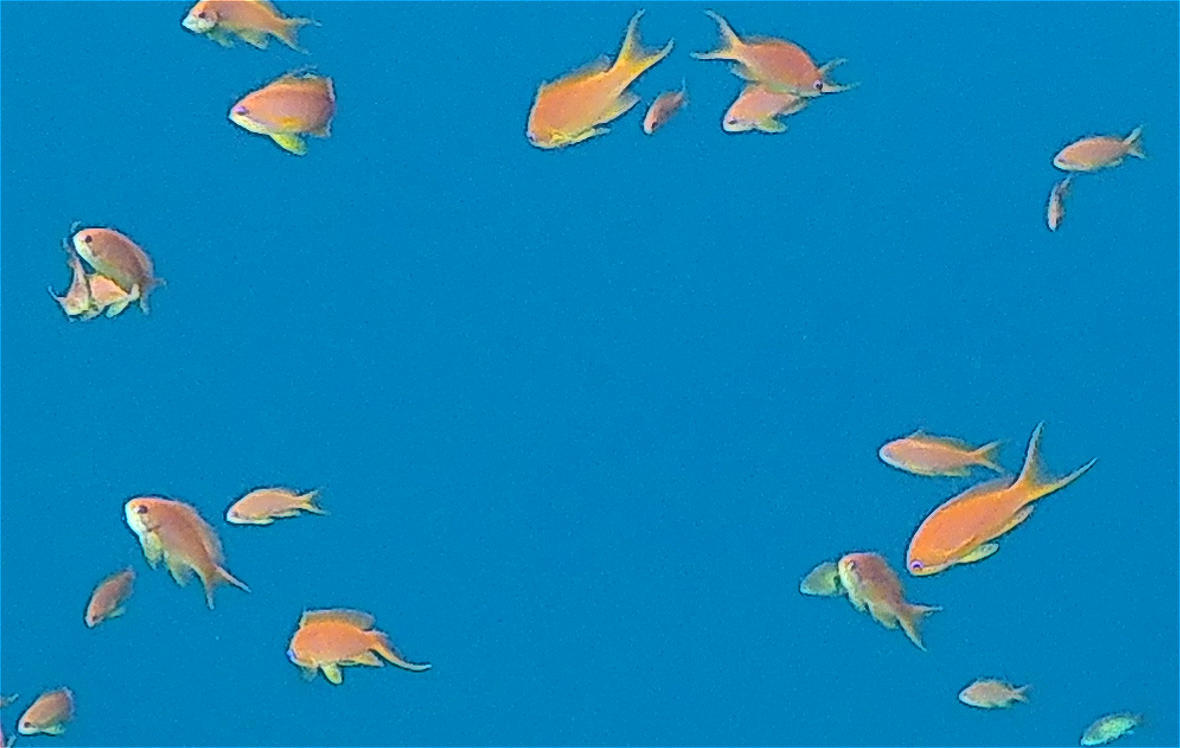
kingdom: Animalia
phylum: Chordata
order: Perciformes
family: Serranidae
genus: Pseudanthias
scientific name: Pseudanthias squamipinnis
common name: Scalefin anthias
